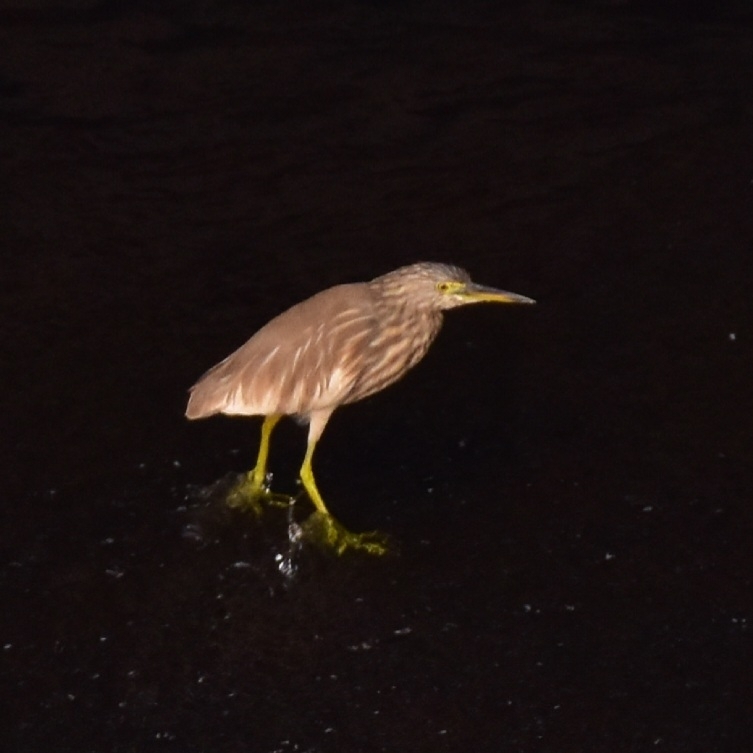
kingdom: Animalia
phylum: Chordata
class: Aves
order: Pelecaniformes
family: Ardeidae
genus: Ardeola
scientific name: Ardeola grayii
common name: Indian pond heron
